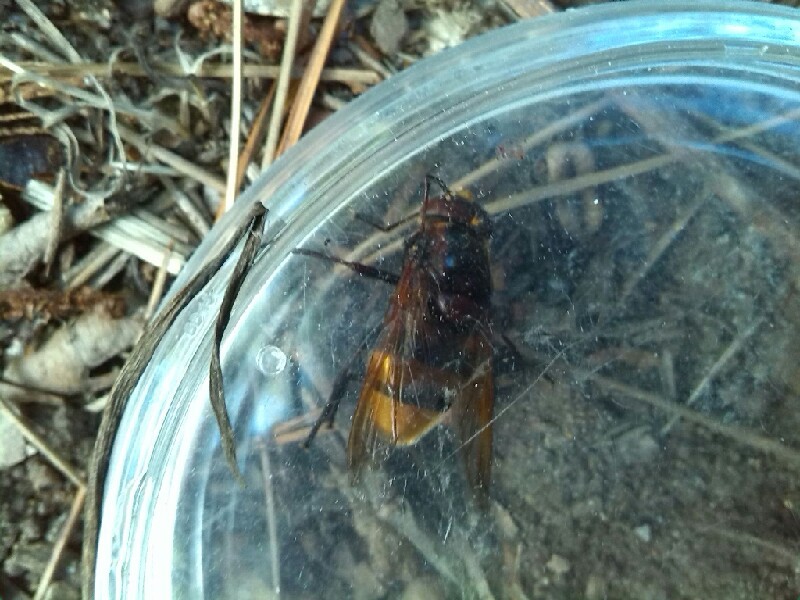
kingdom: Animalia
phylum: Arthropoda
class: Insecta
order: Diptera
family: Syrphidae
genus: Volucella
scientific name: Volucella zonaria
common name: Hornet hoverfly
